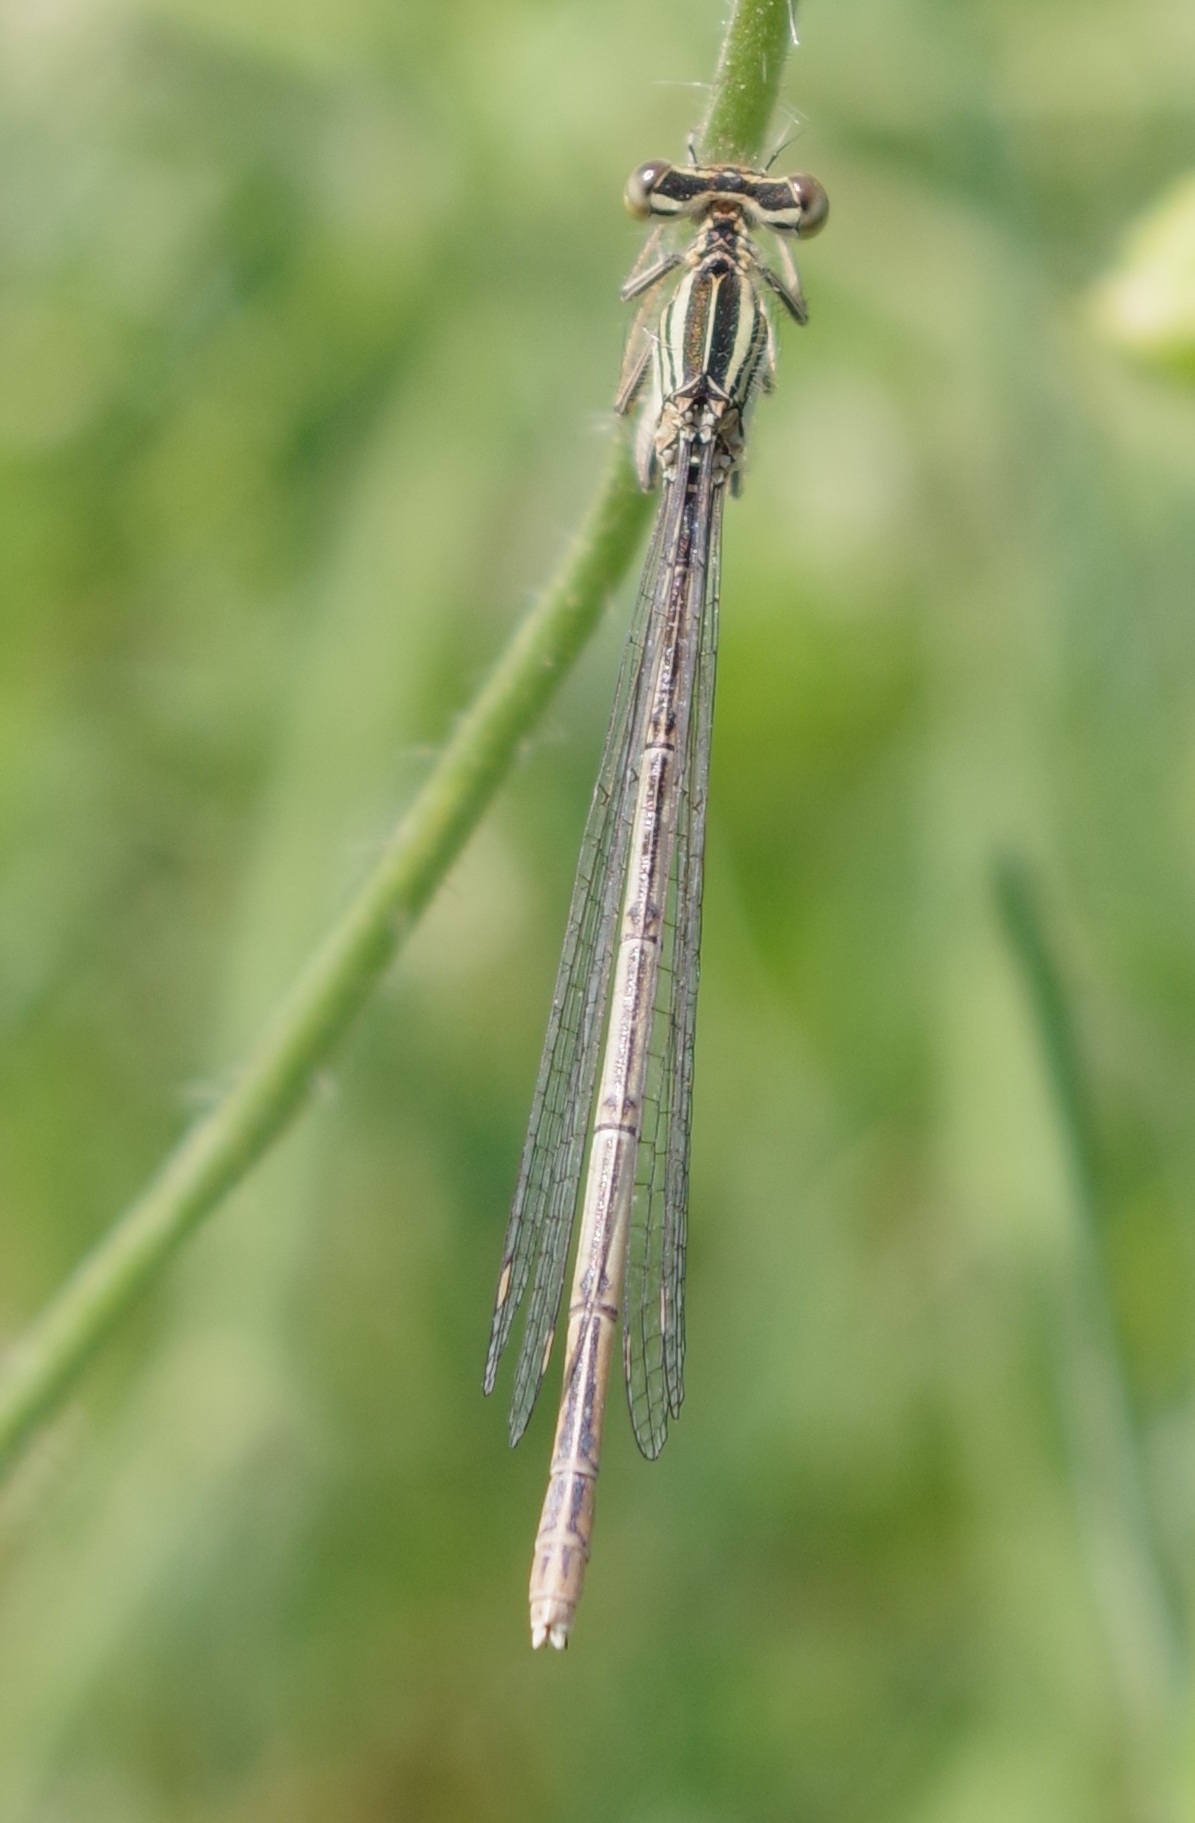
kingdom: Animalia
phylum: Arthropoda
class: Insecta
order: Odonata
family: Platycnemididae
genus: Platycnemis
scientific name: Platycnemis pennipes
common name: White-legged damselfly
